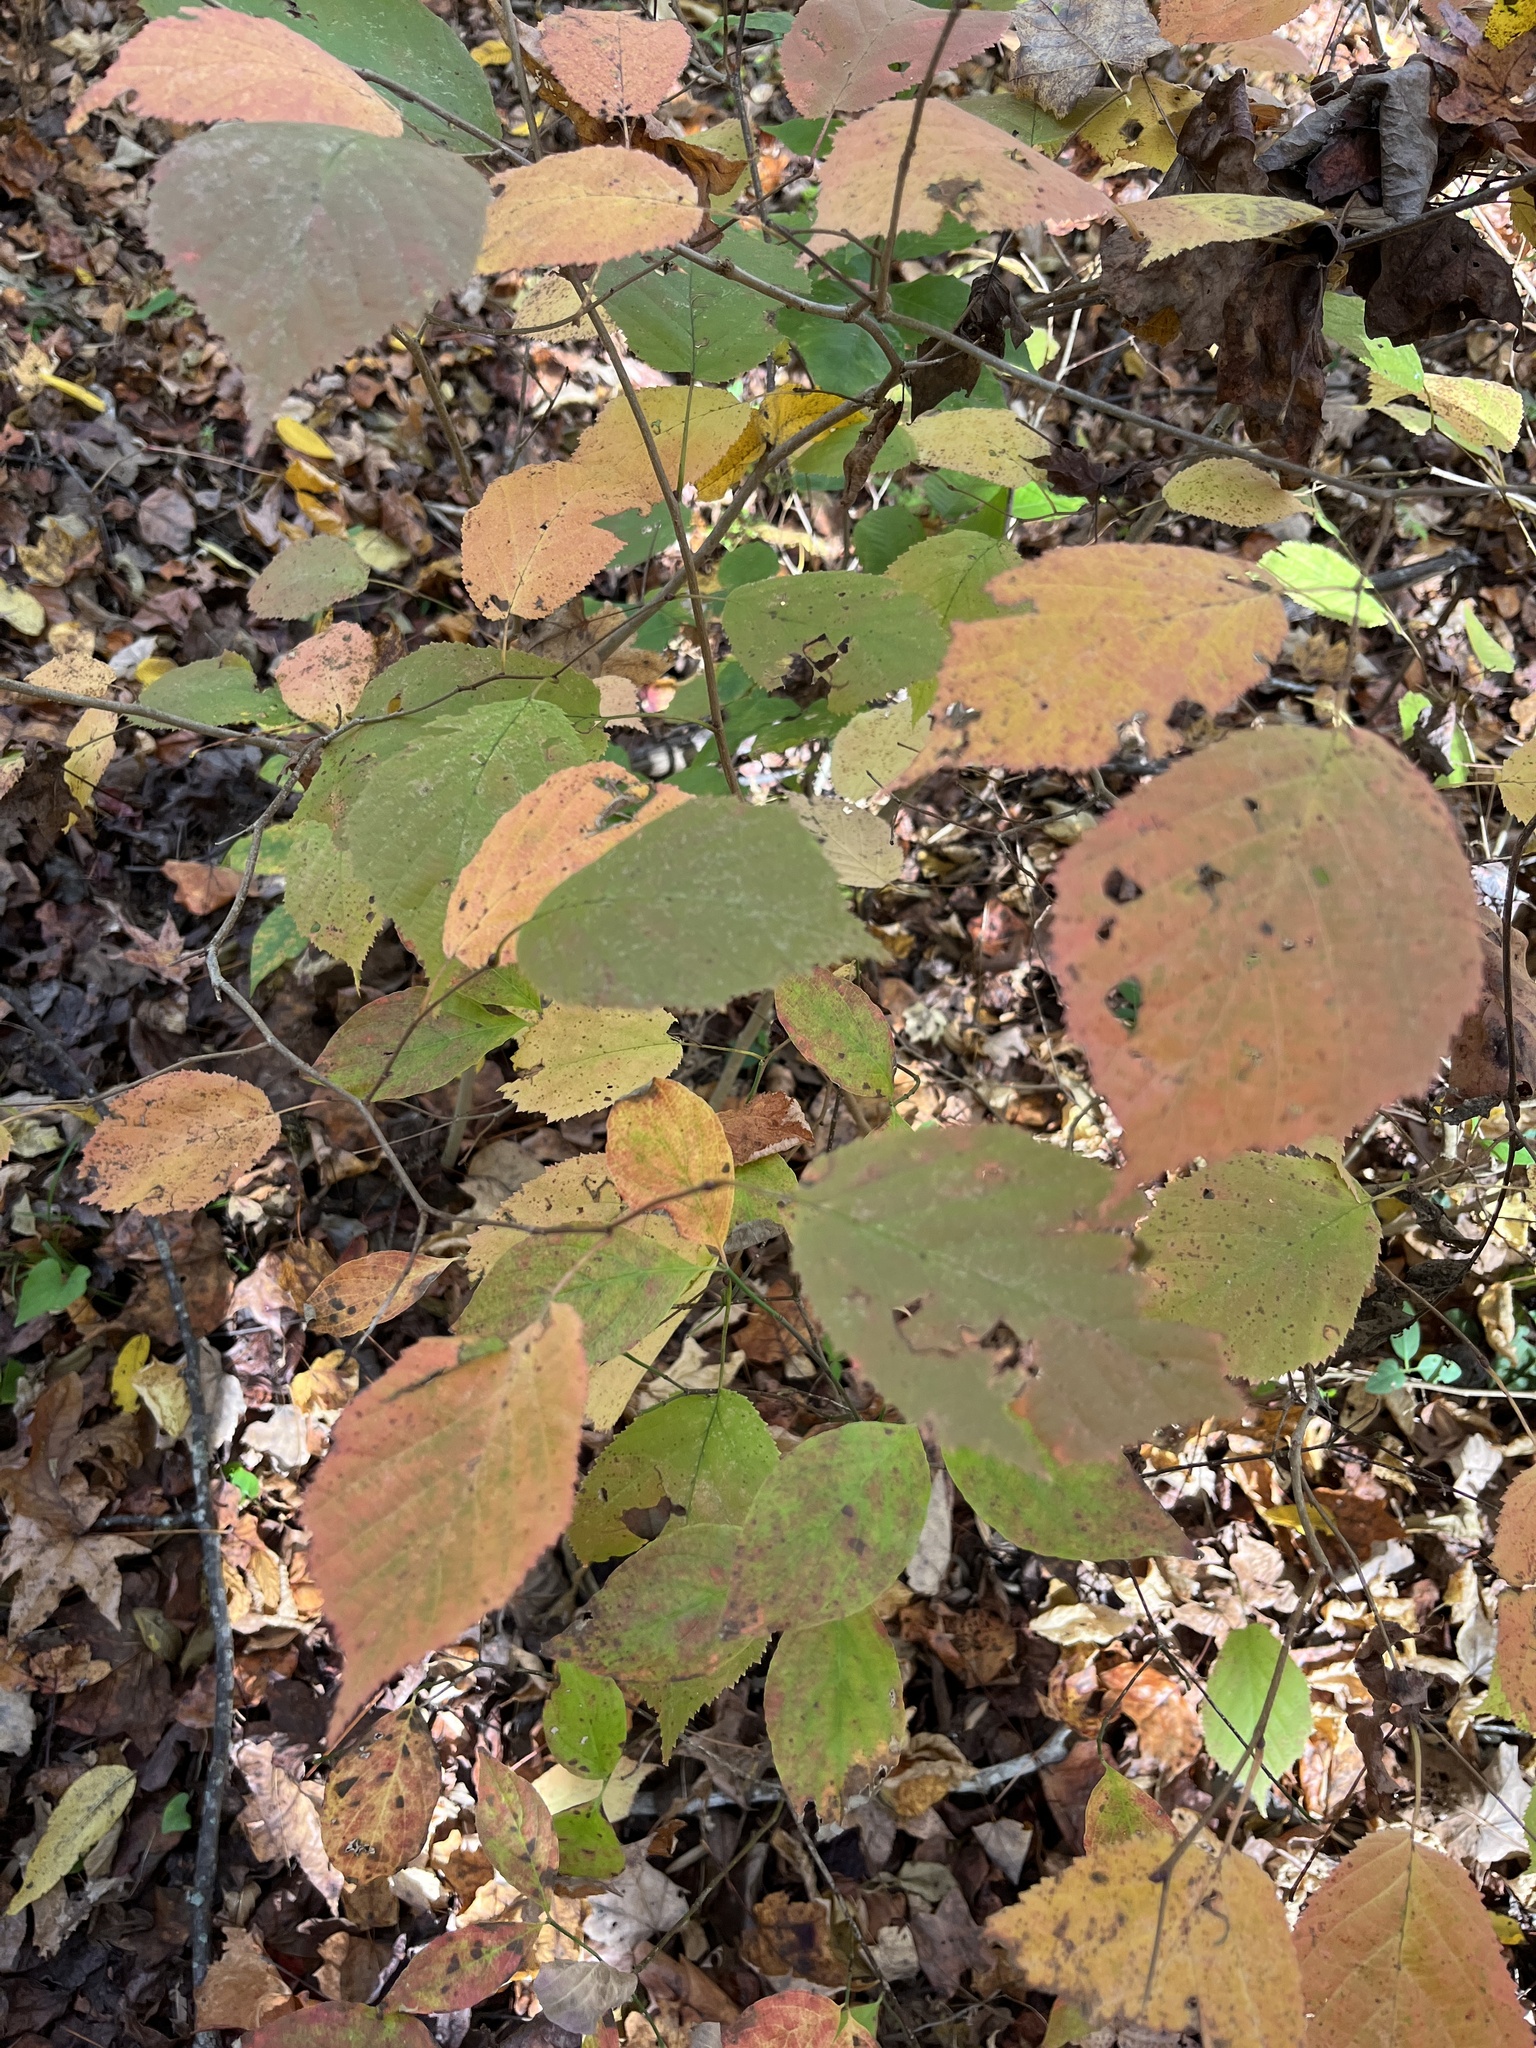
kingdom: Plantae
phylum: Tracheophyta
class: Magnoliopsida
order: Fagales
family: Betulaceae
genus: Ostrya
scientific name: Ostrya virginiana
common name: Ironwood
